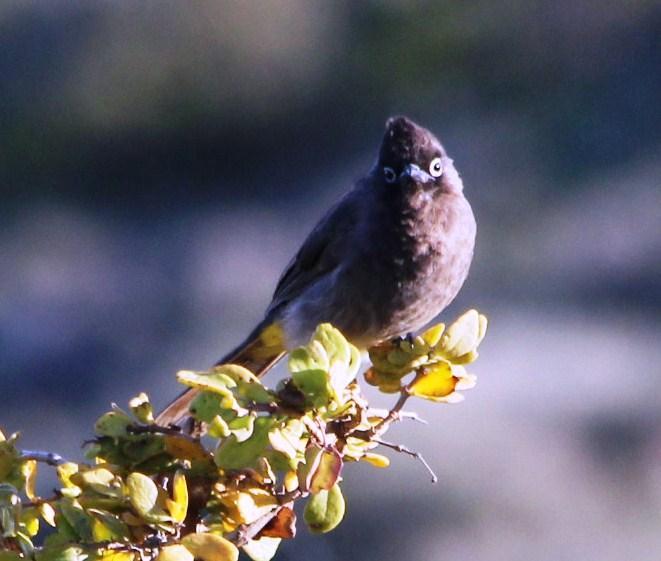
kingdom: Animalia
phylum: Chordata
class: Aves
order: Passeriformes
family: Pycnonotidae
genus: Pycnonotus
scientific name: Pycnonotus capensis
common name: Cape bulbul
